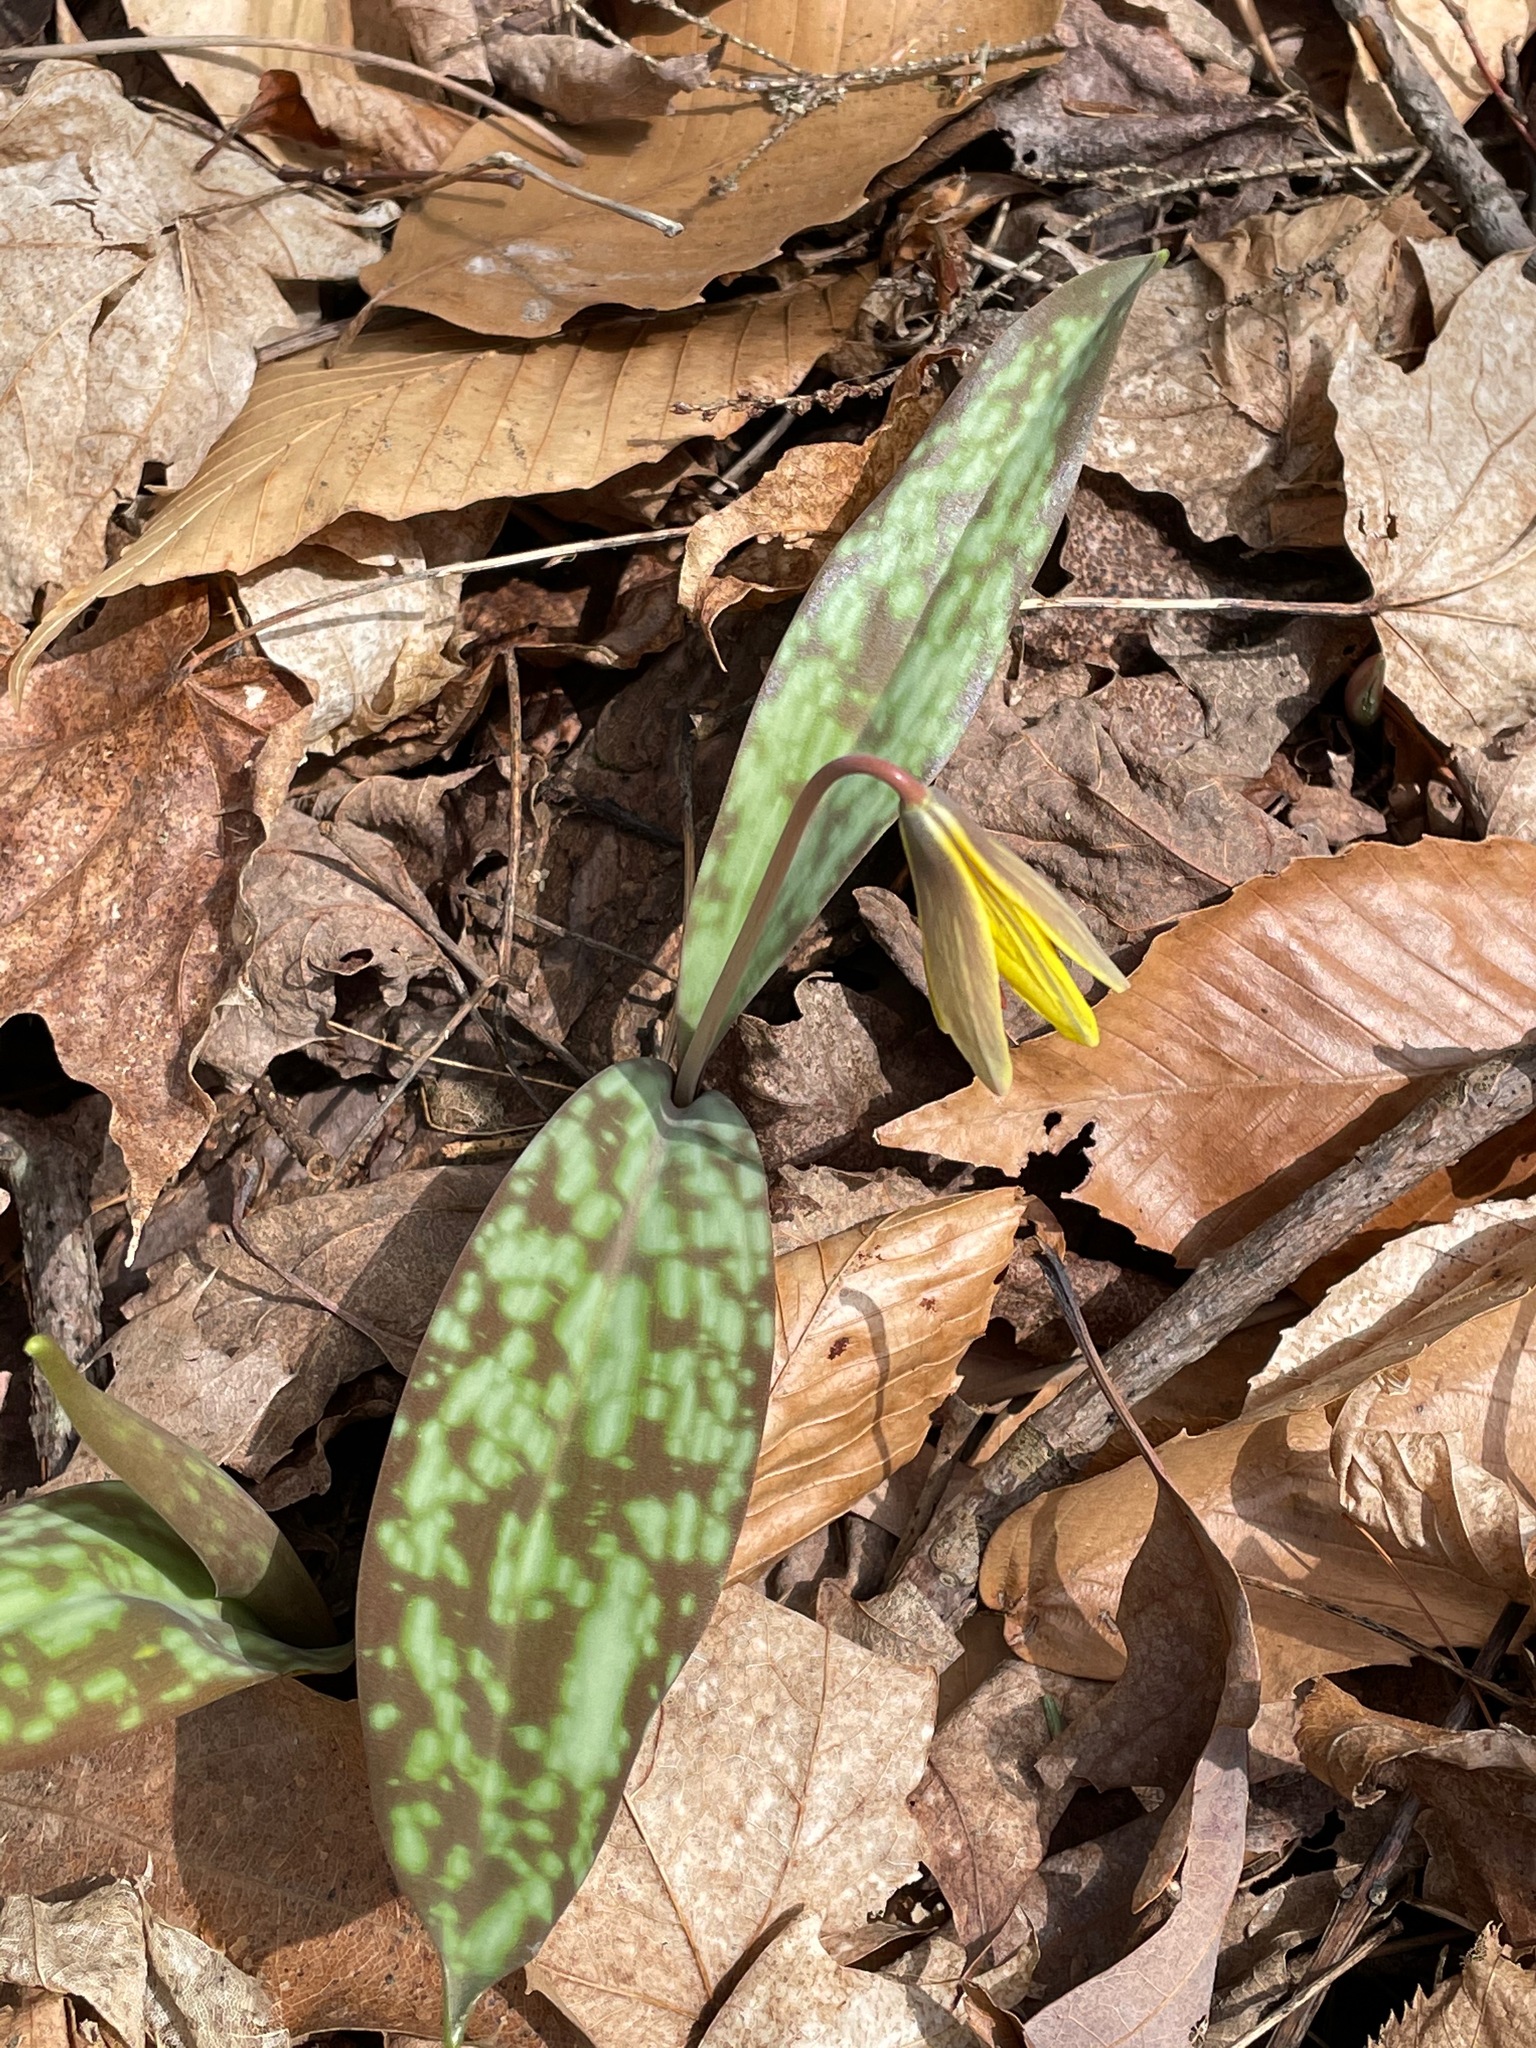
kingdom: Plantae
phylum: Tracheophyta
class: Liliopsida
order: Liliales
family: Liliaceae
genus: Erythronium
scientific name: Erythronium americanum
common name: Yellow adder's-tongue
